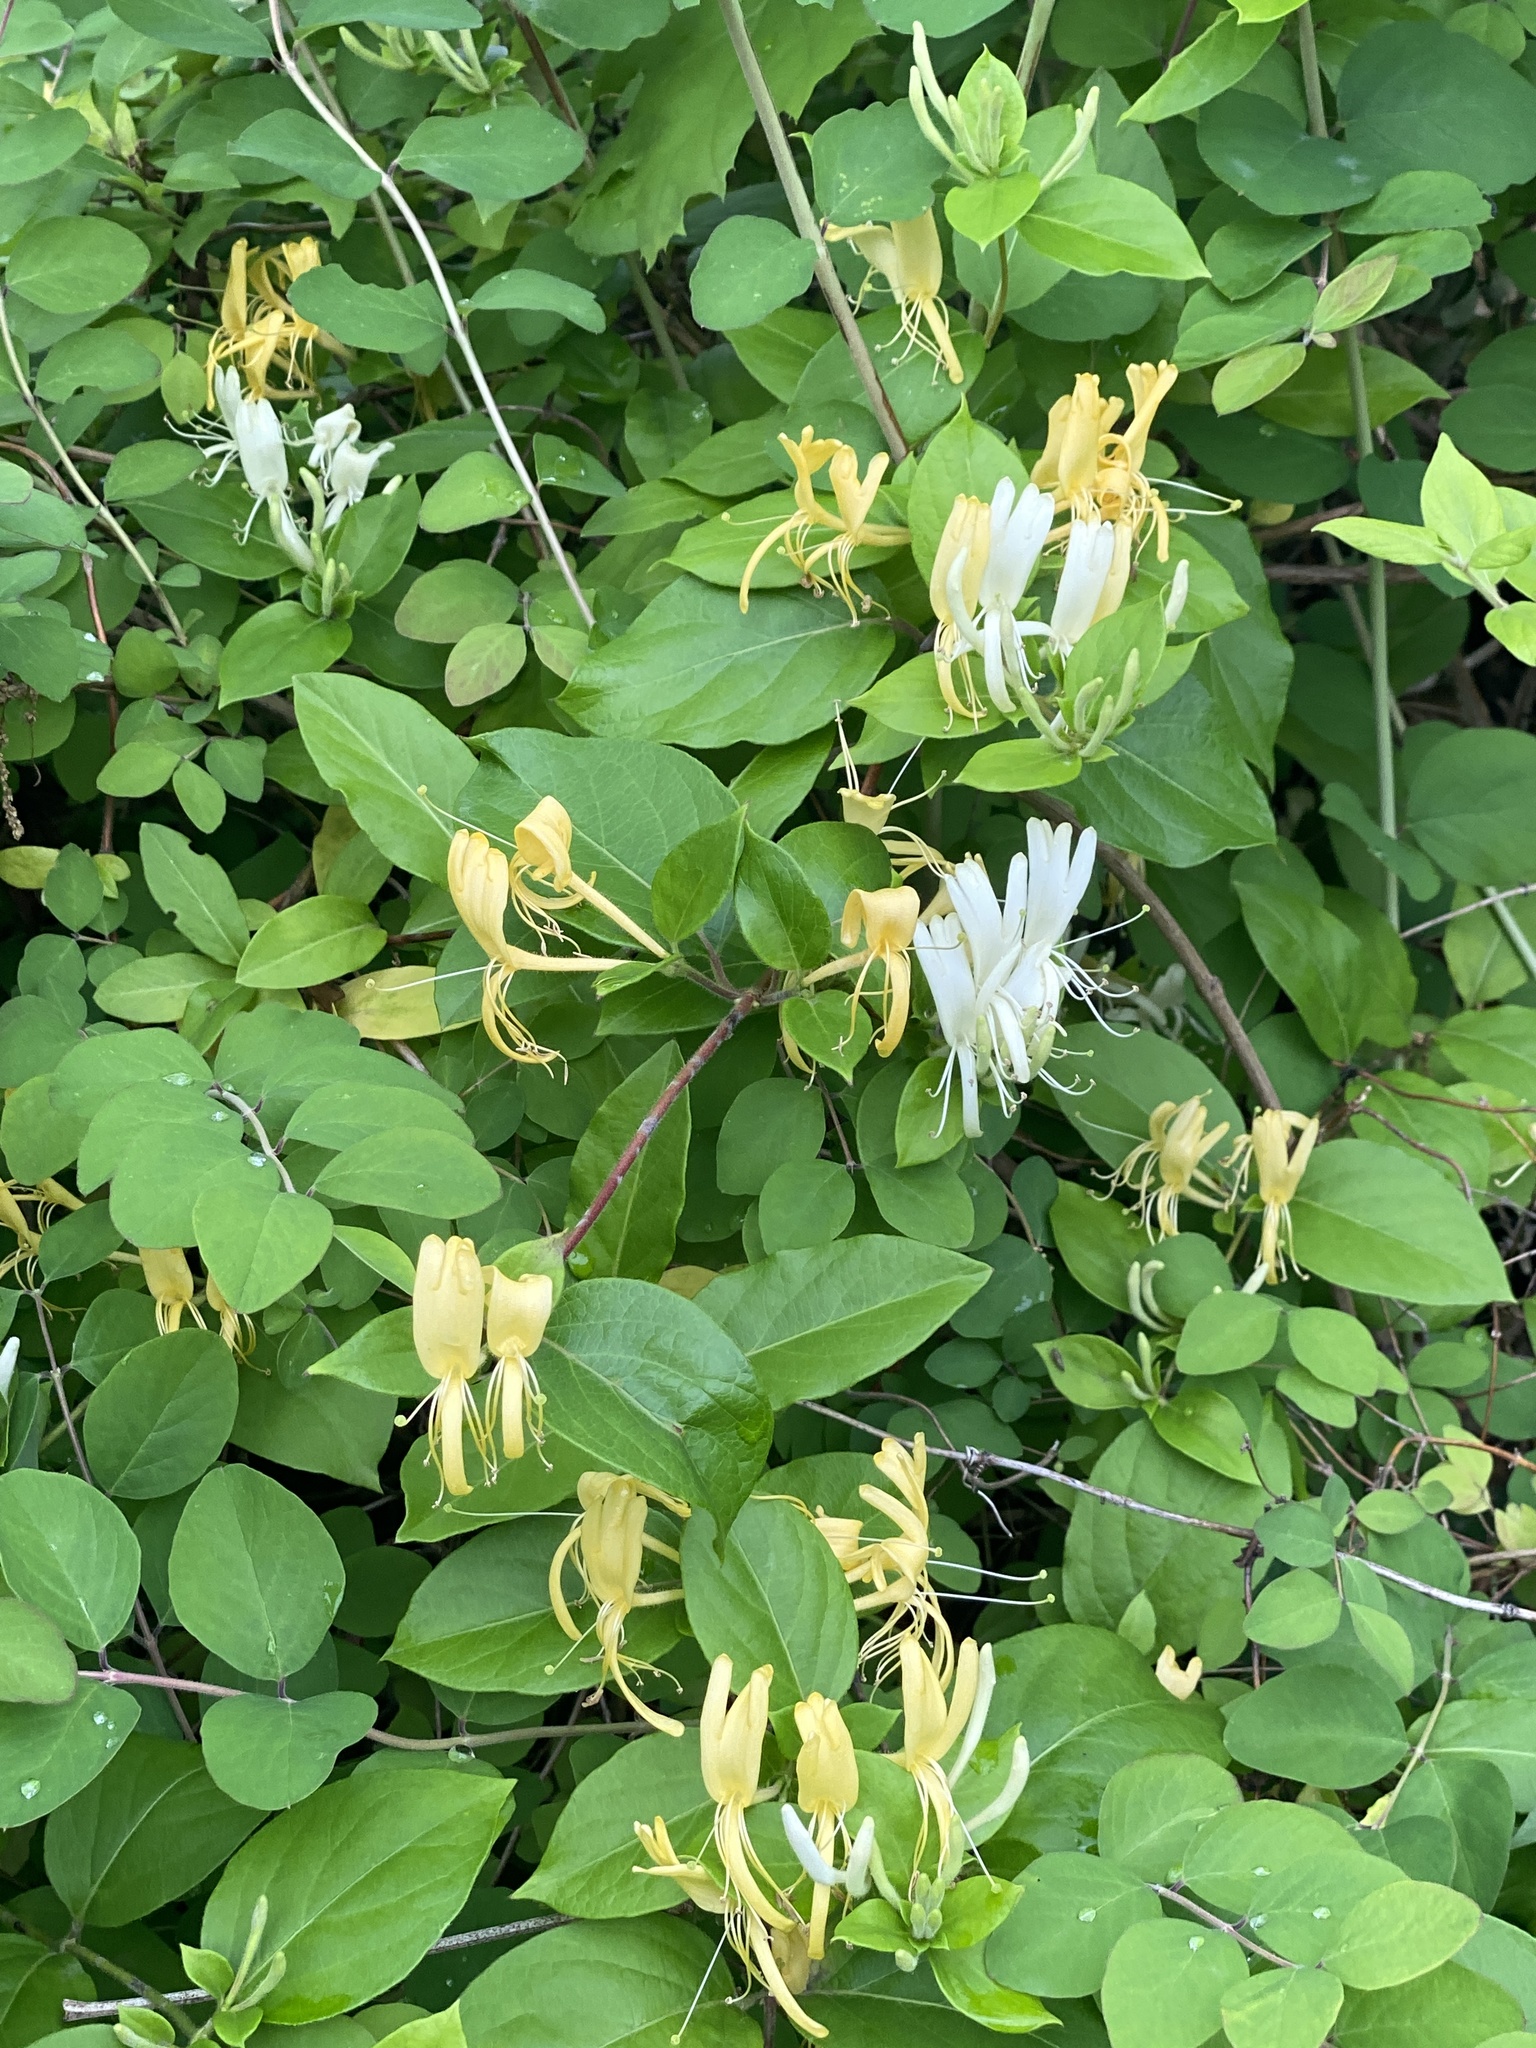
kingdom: Plantae
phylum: Tracheophyta
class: Magnoliopsida
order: Dipsacales
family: Caprifoliaceae
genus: Lonicera
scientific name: Lonicera japonica
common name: Japanese honeysuckle
